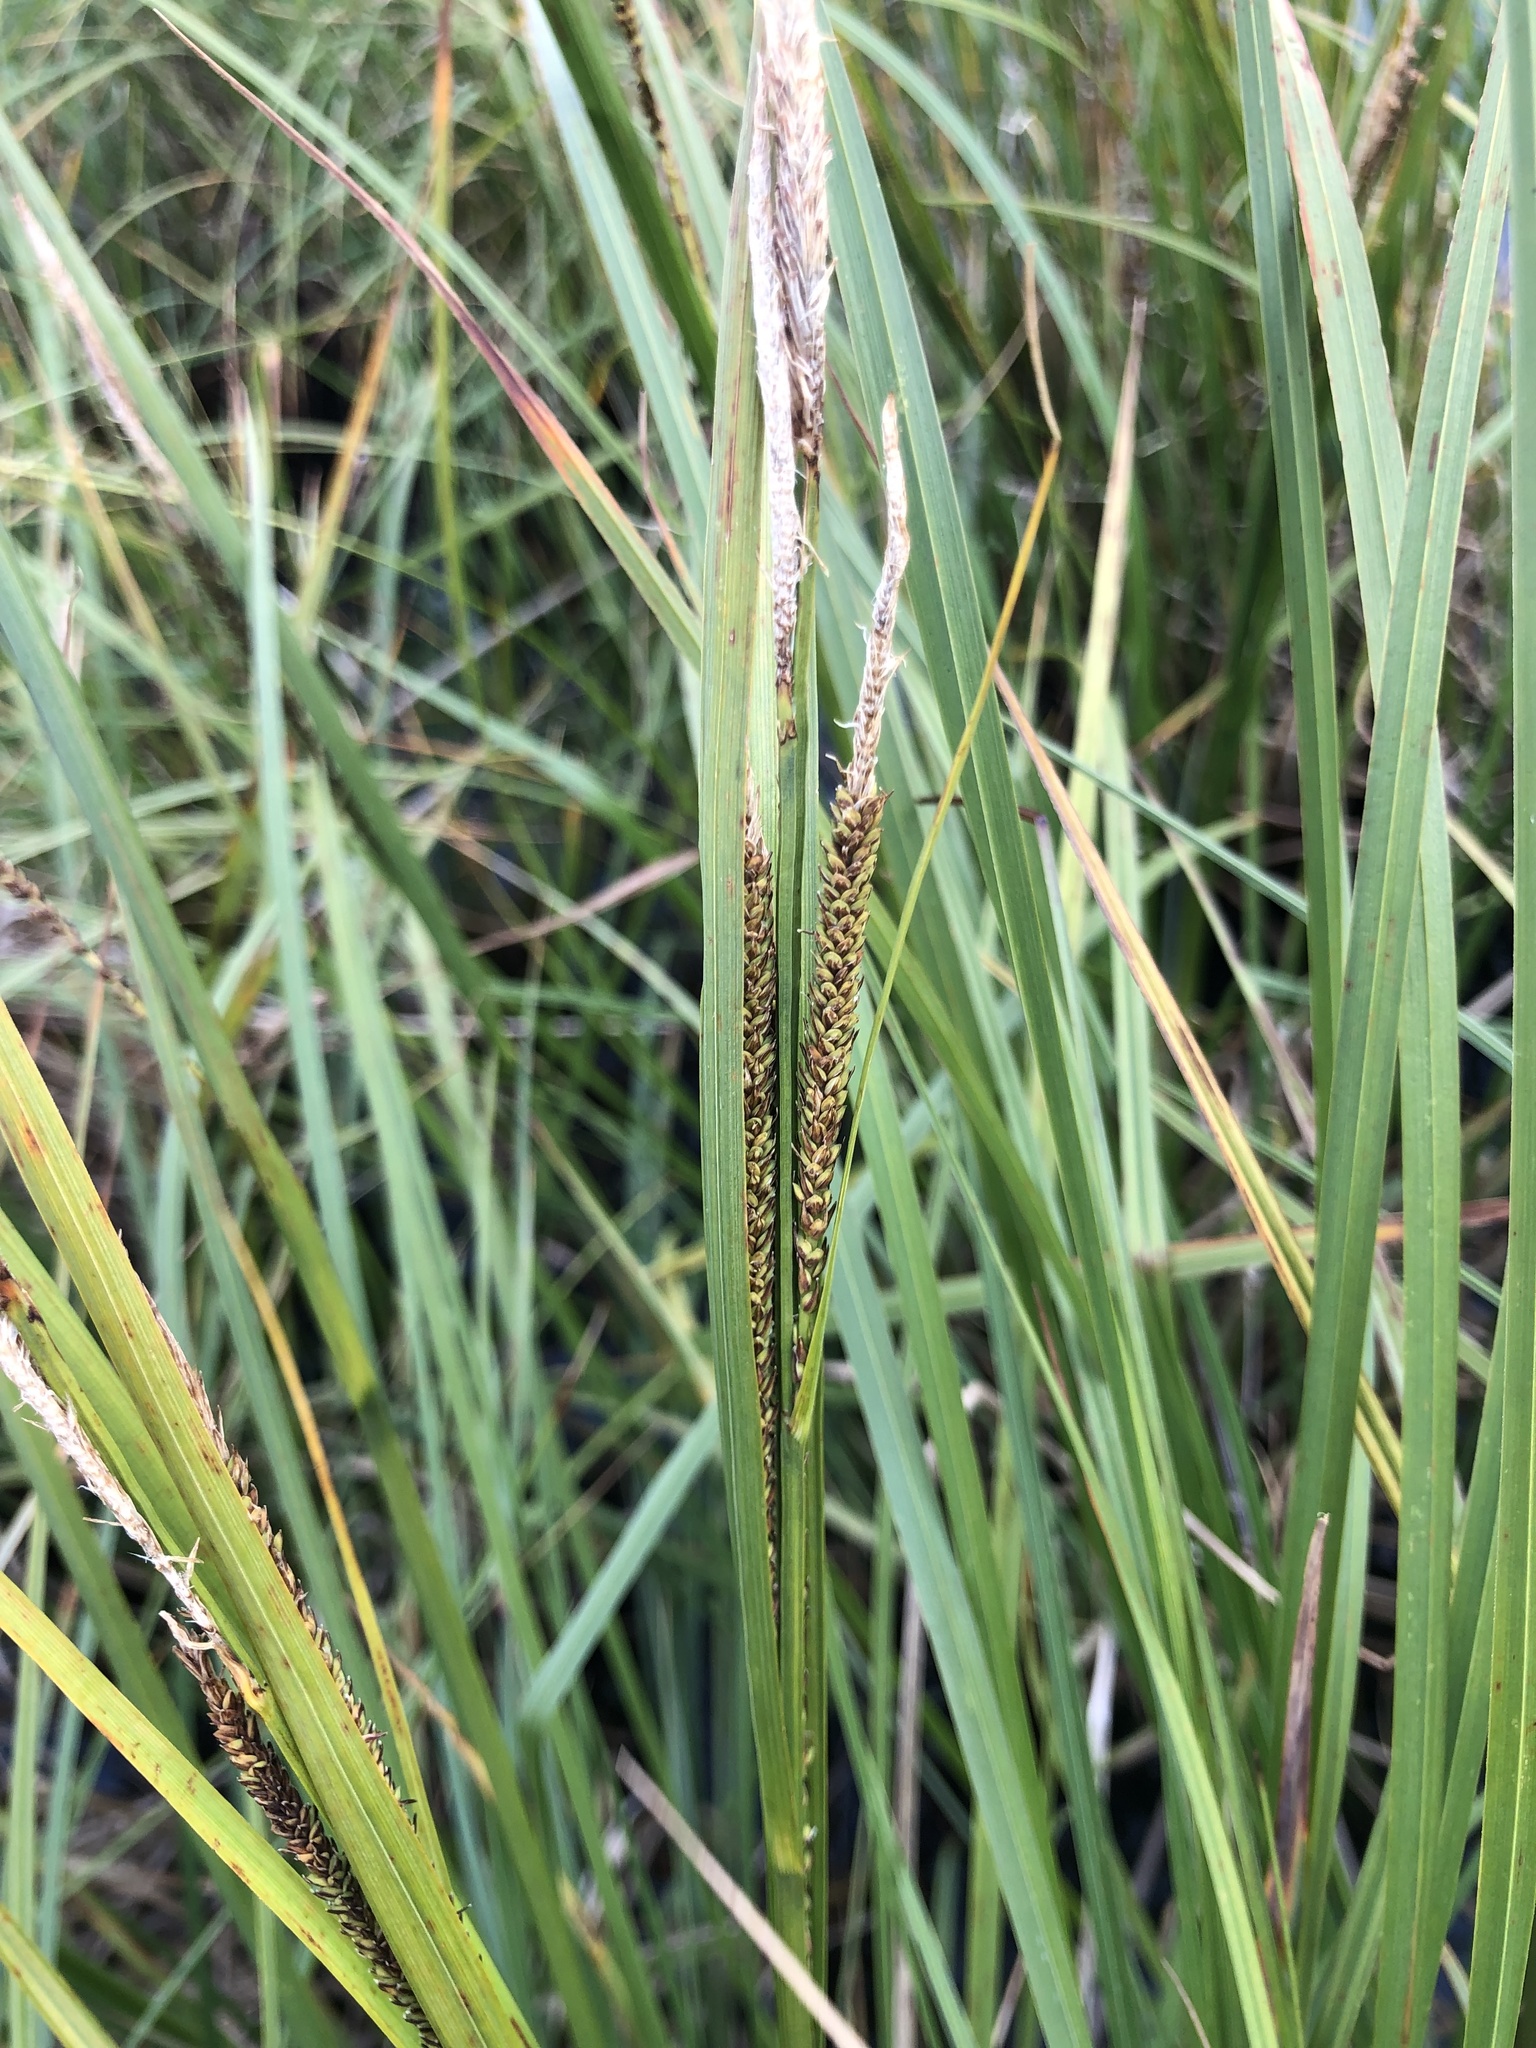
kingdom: Plantae
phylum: Tracheophyta
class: Liliopsida
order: Poales
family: Cyperaceae
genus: Carex
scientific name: Carex aquatilis
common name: Water sedge
